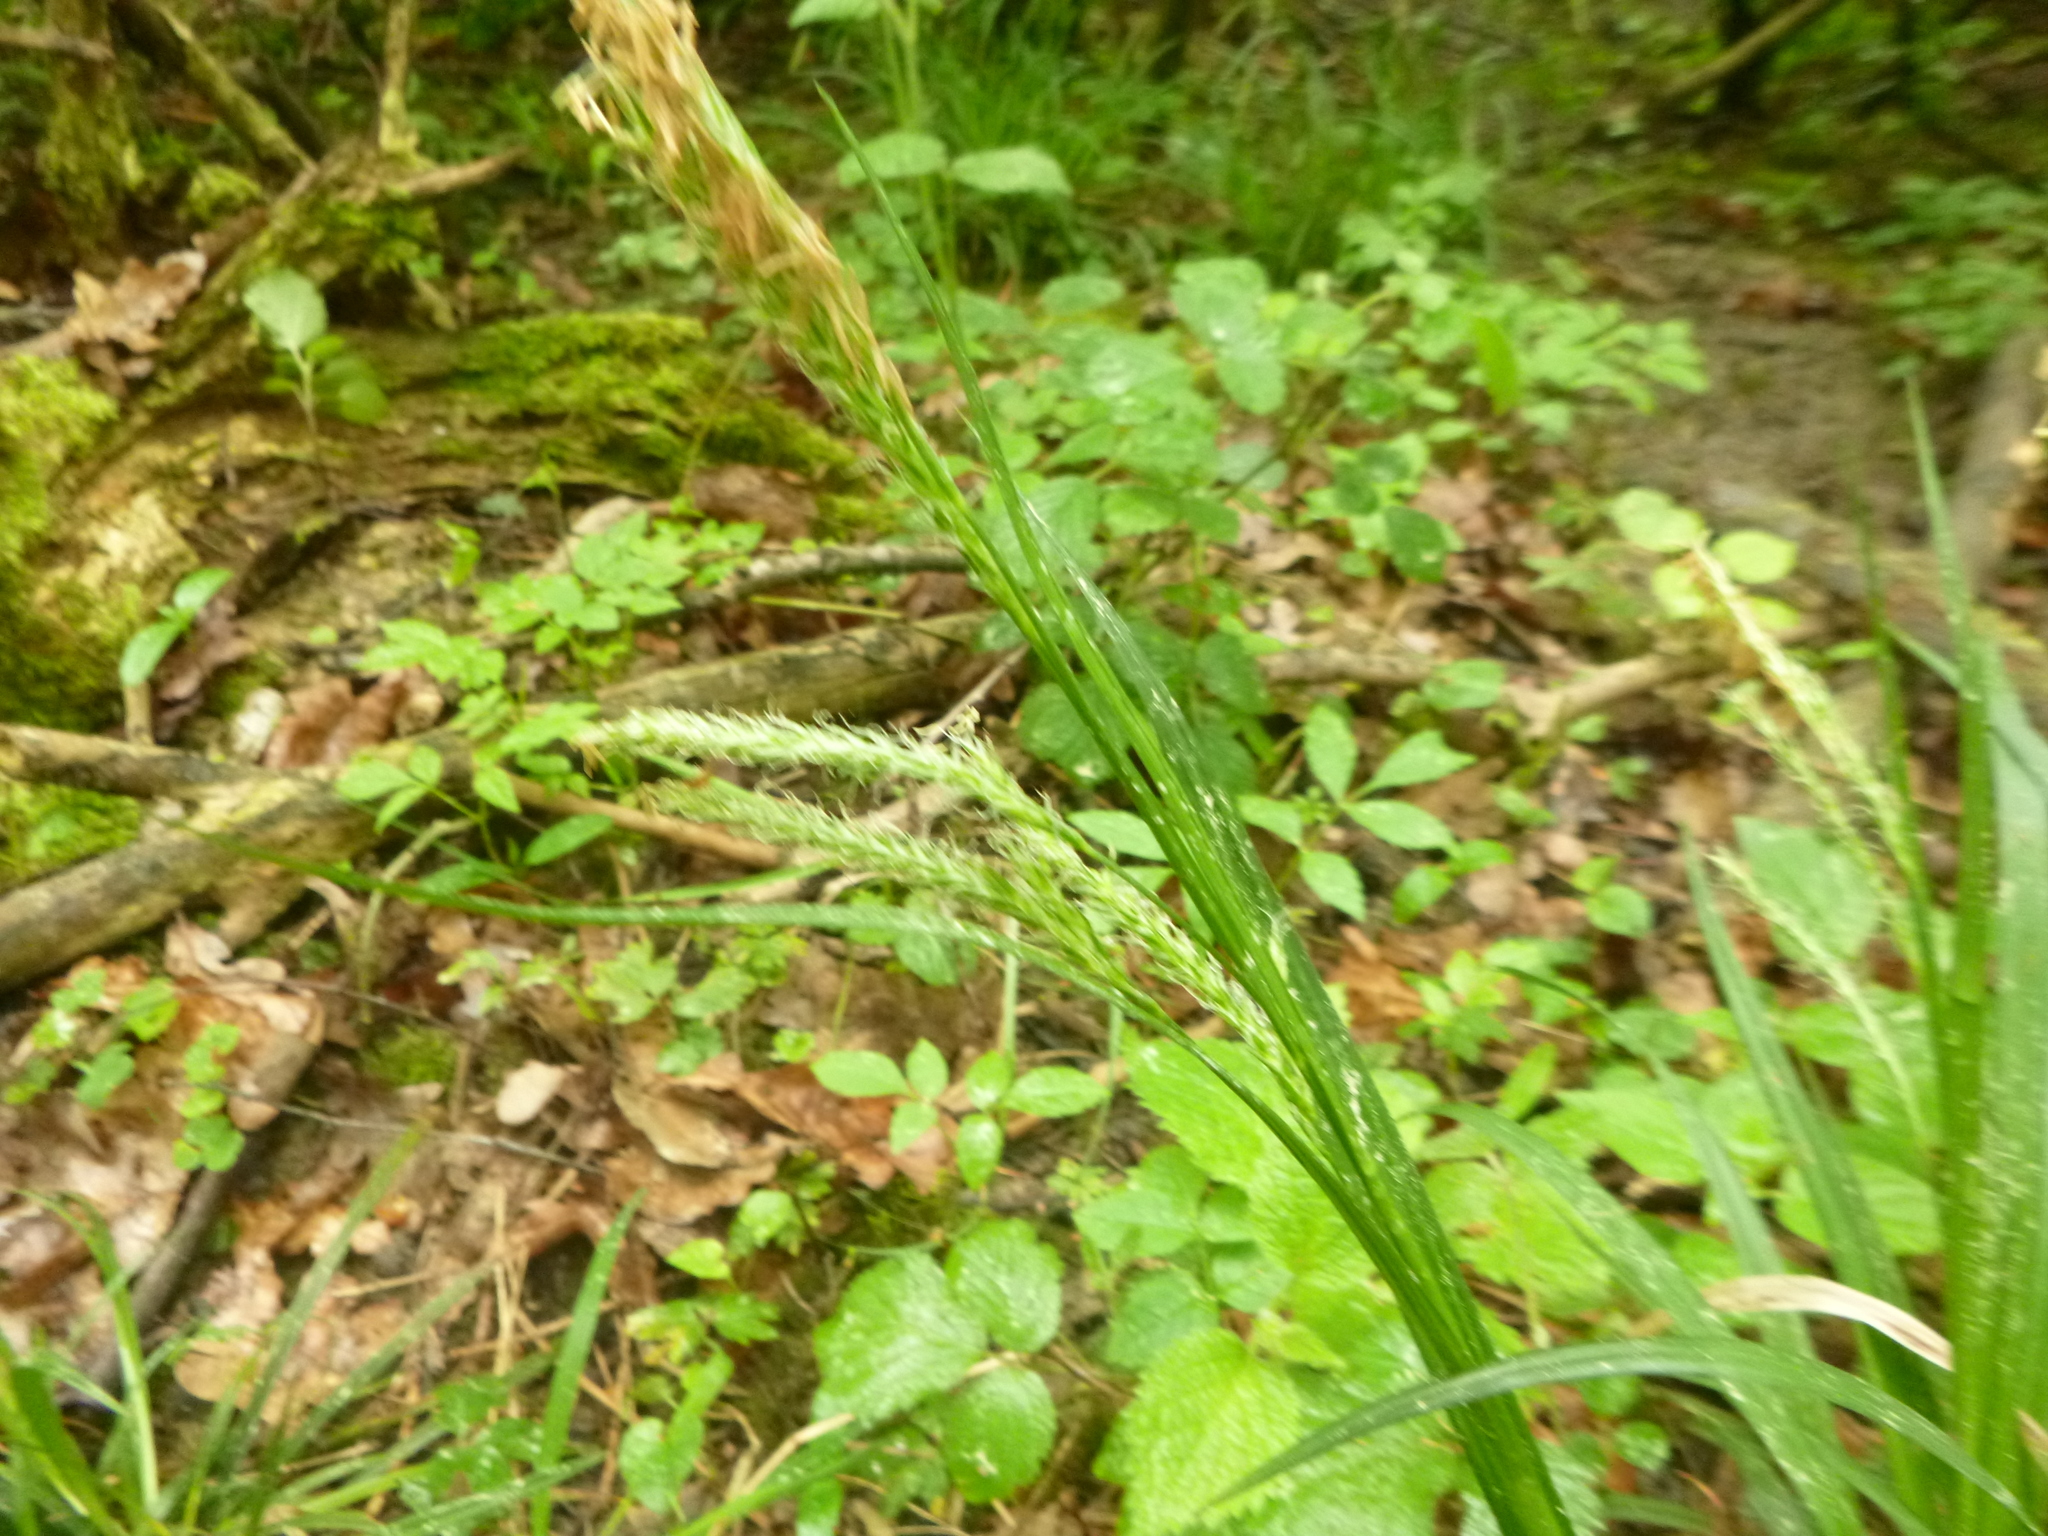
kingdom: Plantae
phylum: Tracheophyta
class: Liliopsida
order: Poales
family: Cyperaceae
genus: Carex
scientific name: Carex sylvatica
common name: Wood-sedge
